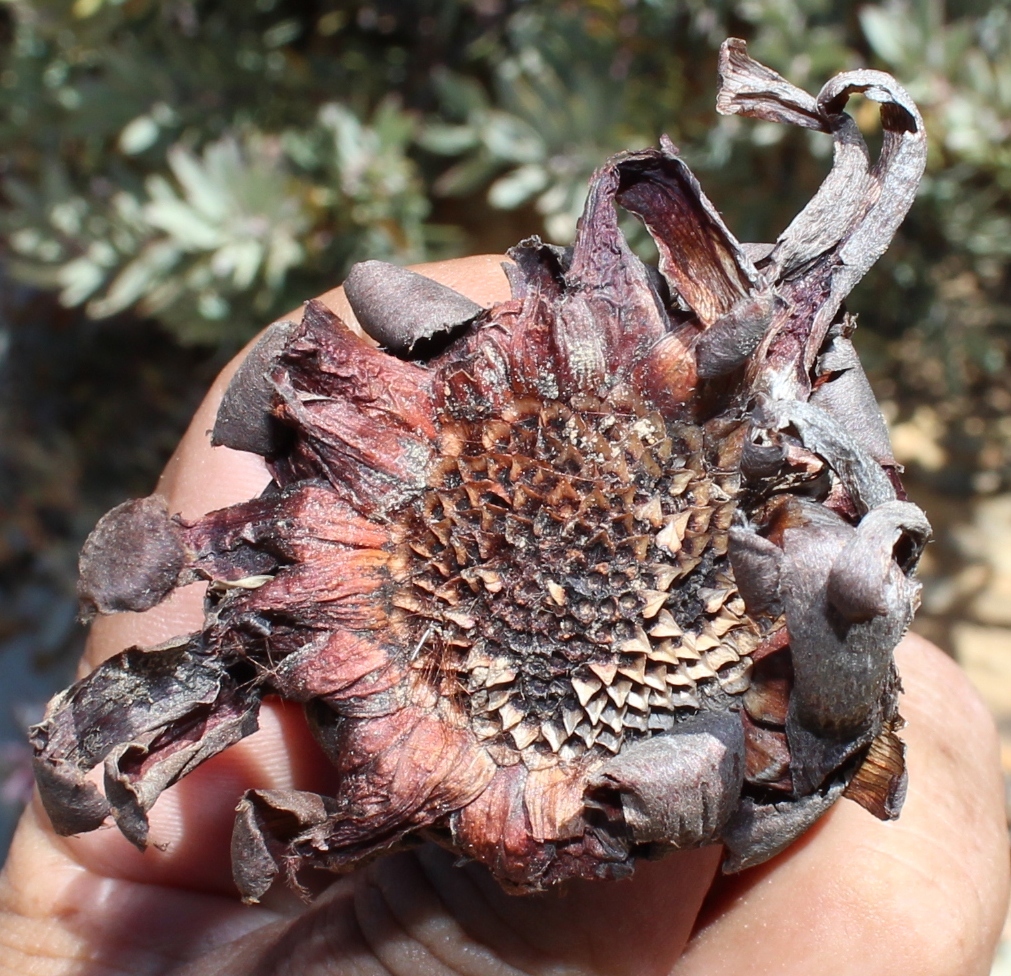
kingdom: Plantae
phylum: Tracheophyta
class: Magnoliopsida
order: Proteales
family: Proteaceae
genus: Protea
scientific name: Protea pendula
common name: Nodding sugarbush
